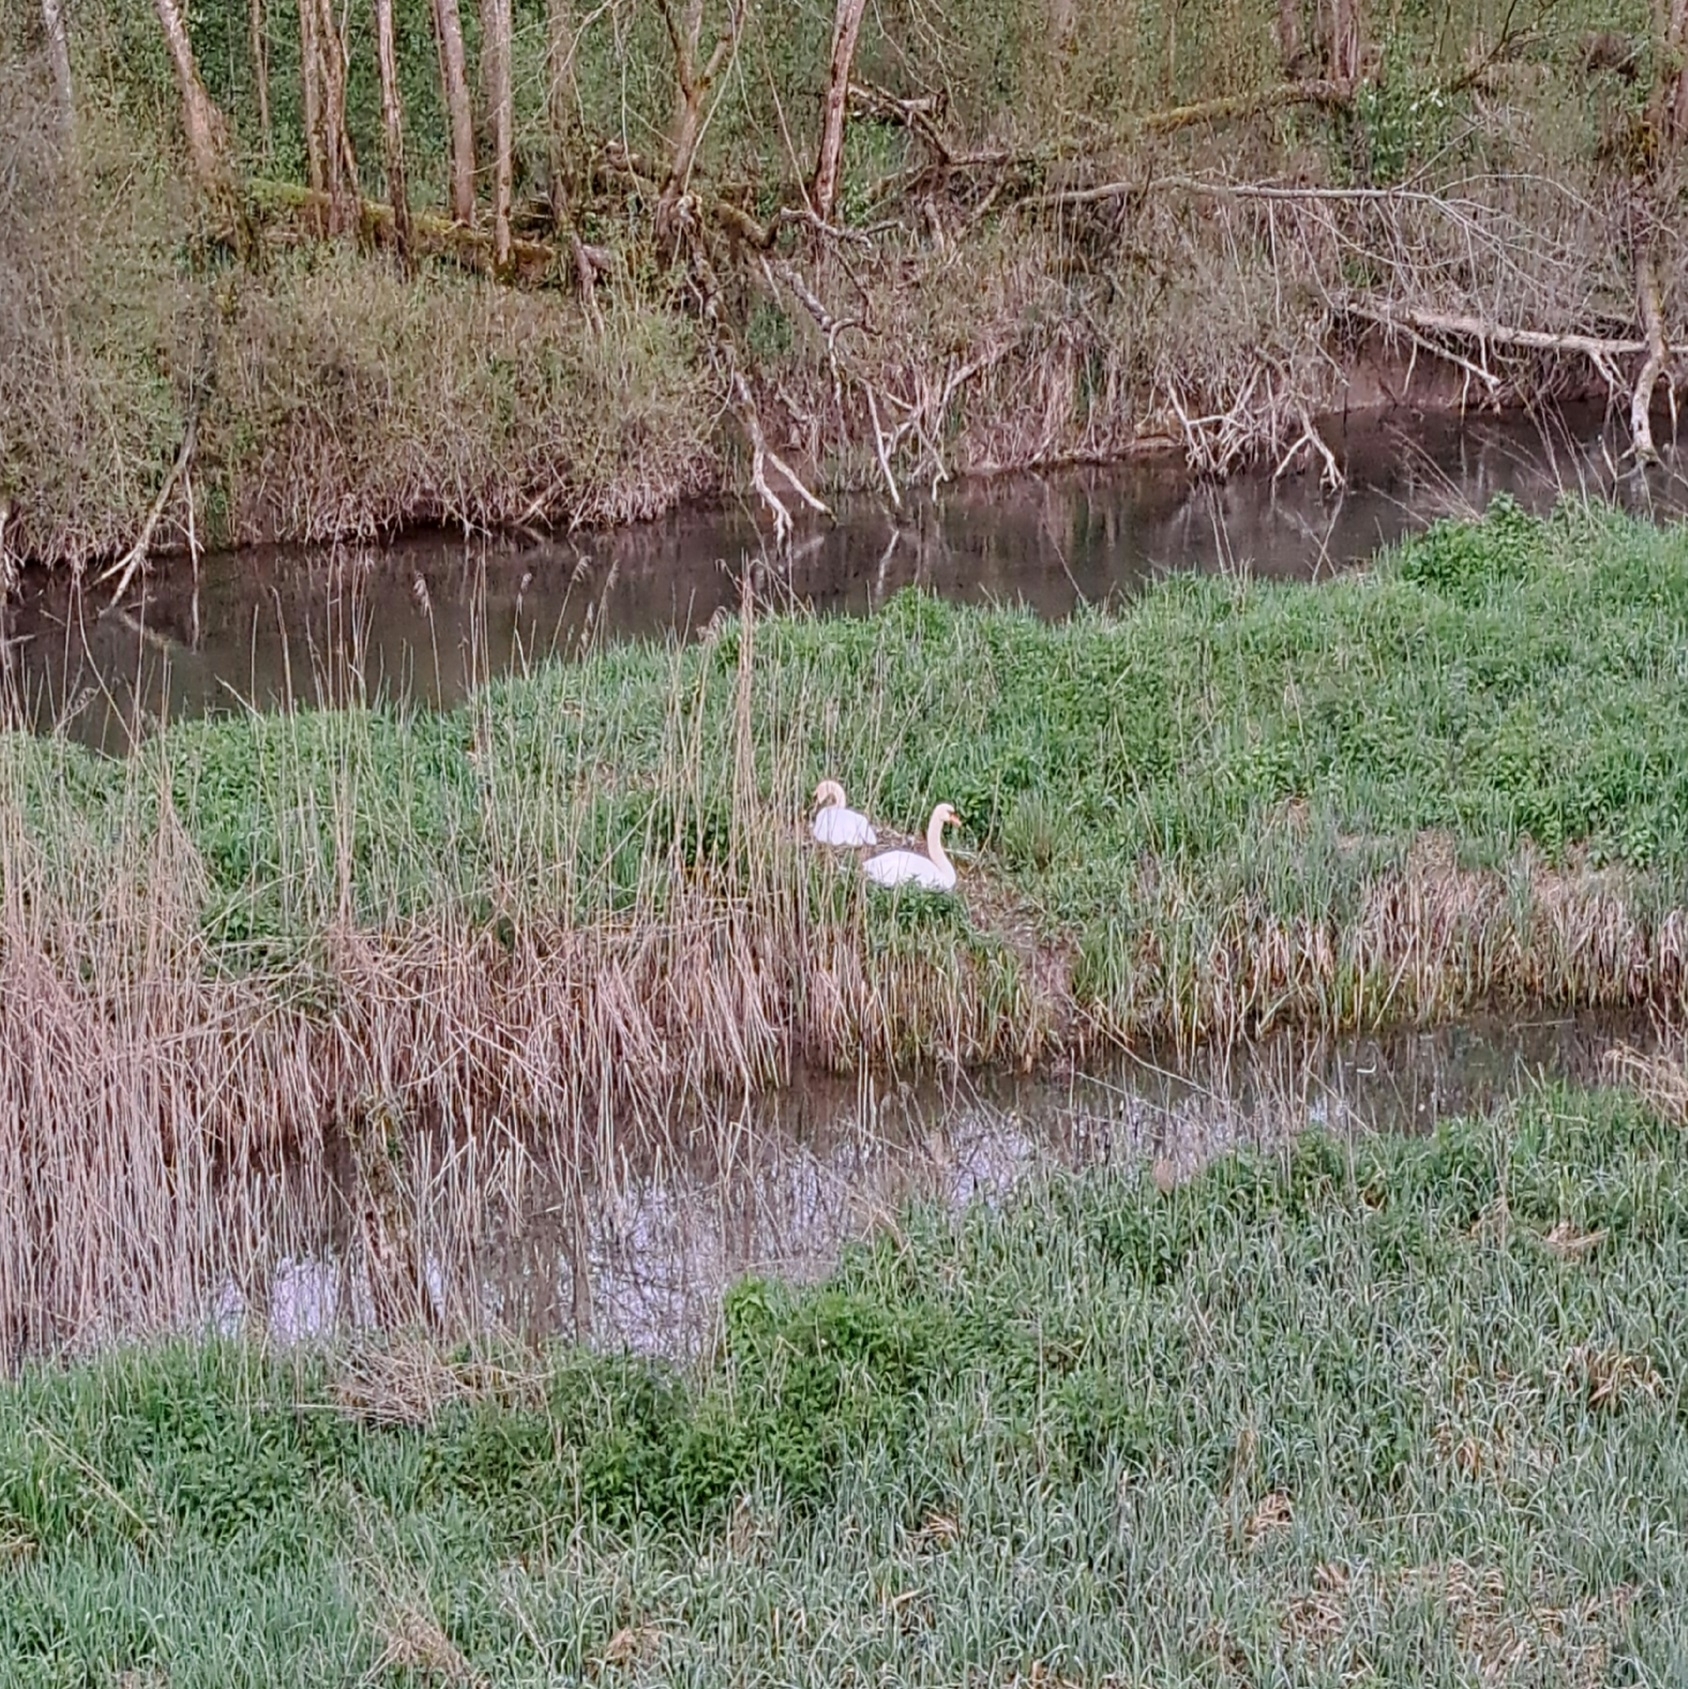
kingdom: Animalia
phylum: Chordata
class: Aves
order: Anseriformes
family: Anatidae
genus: Cygnus
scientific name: Cygnus olor
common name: Mute swan
